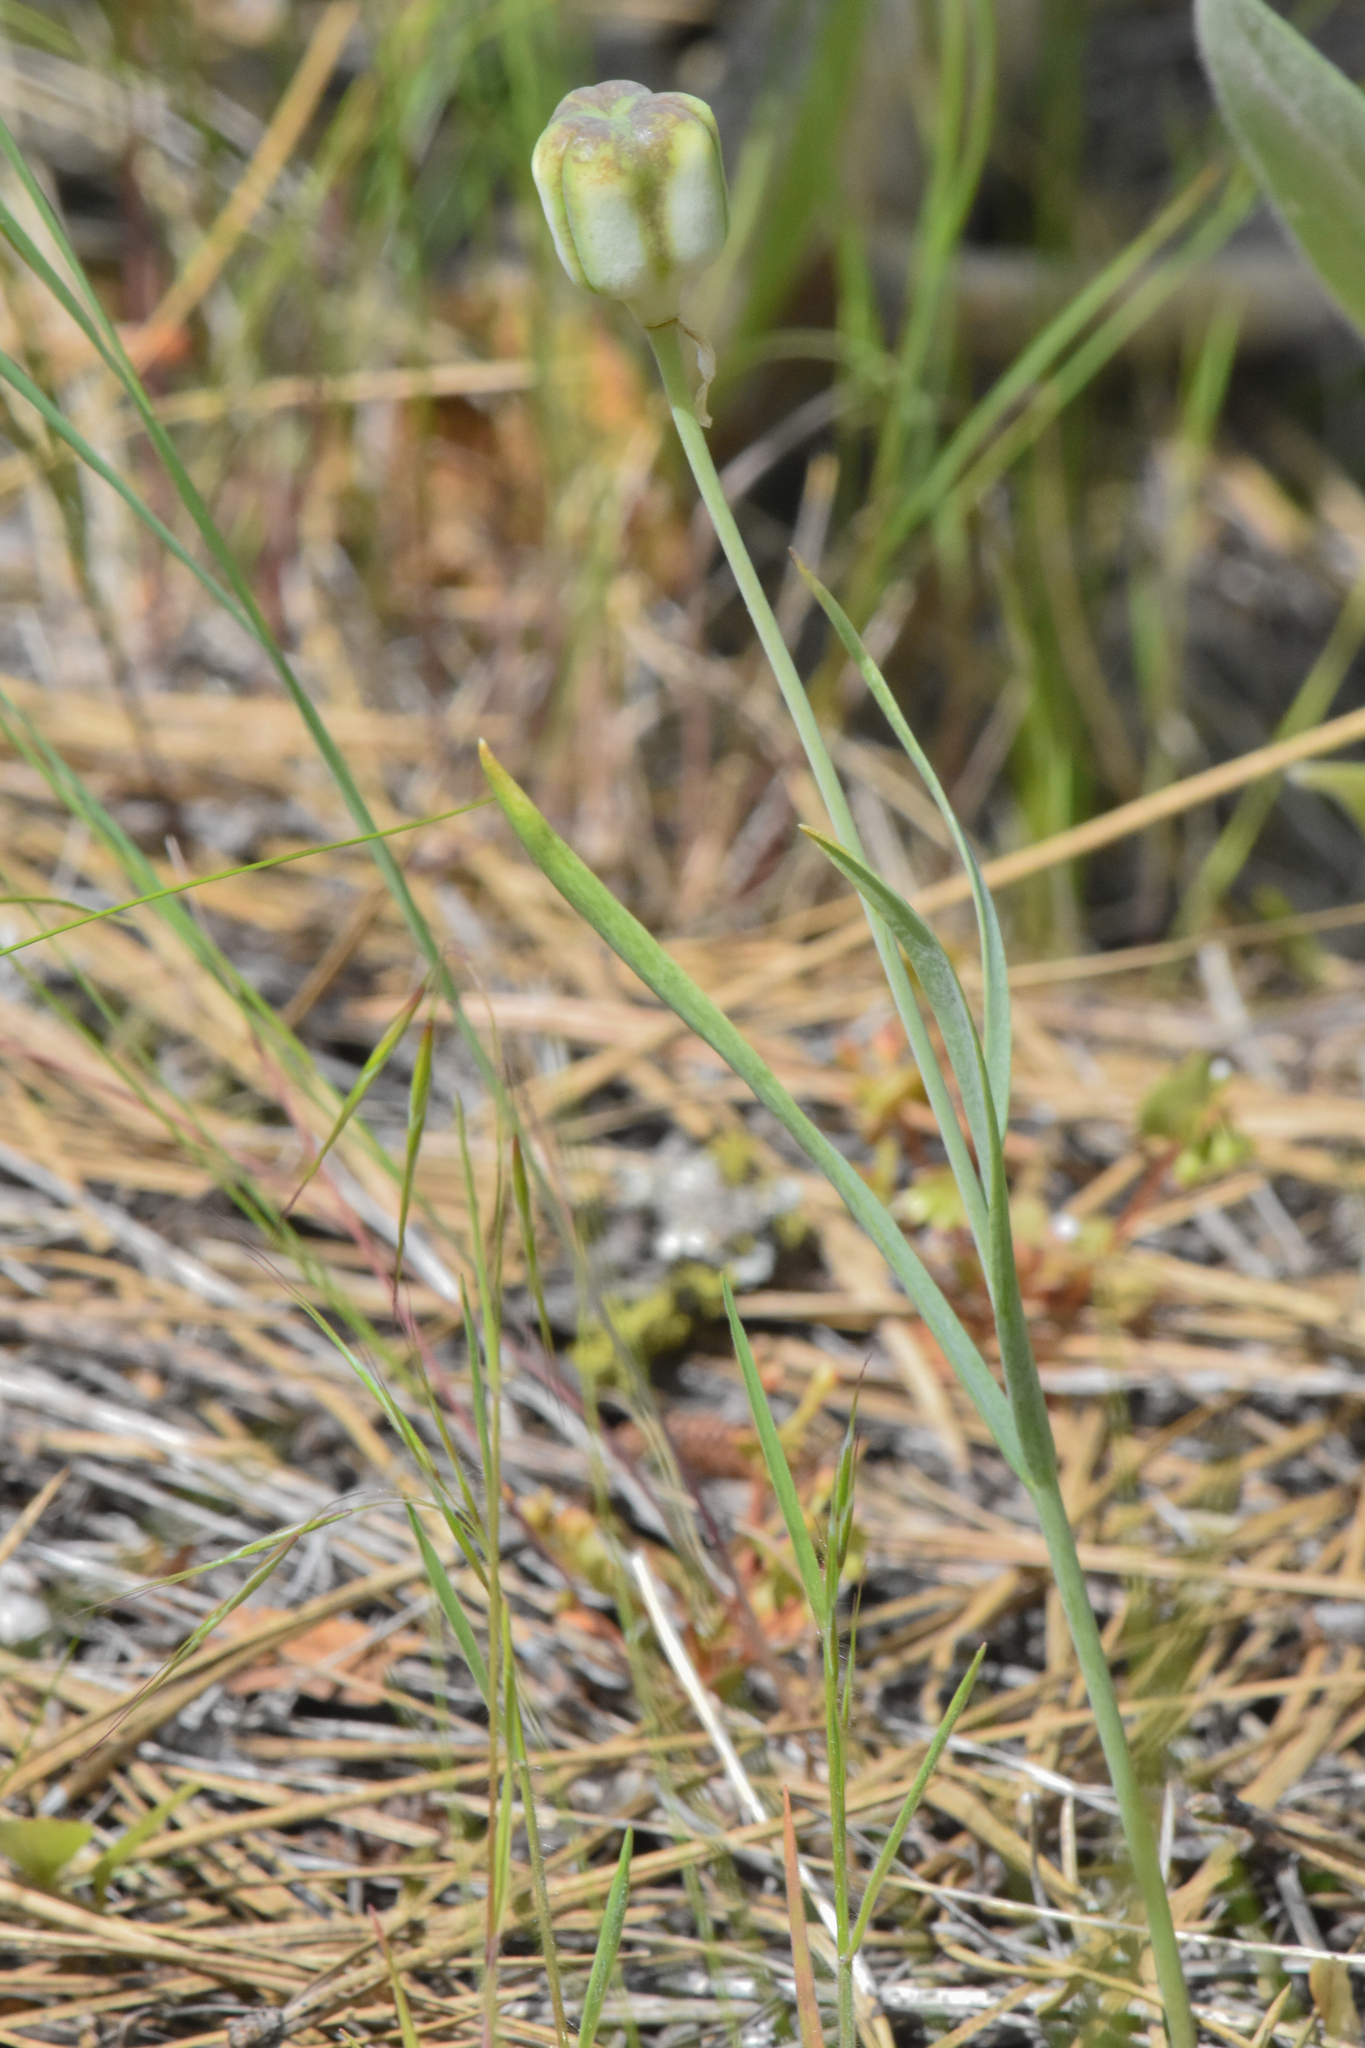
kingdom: Plantae
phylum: Tracheophyta
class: Liliopsida
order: Liliales
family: Liliaceae
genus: Fritillaria
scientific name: Fritillaria pudica
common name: Yellow fritillary
